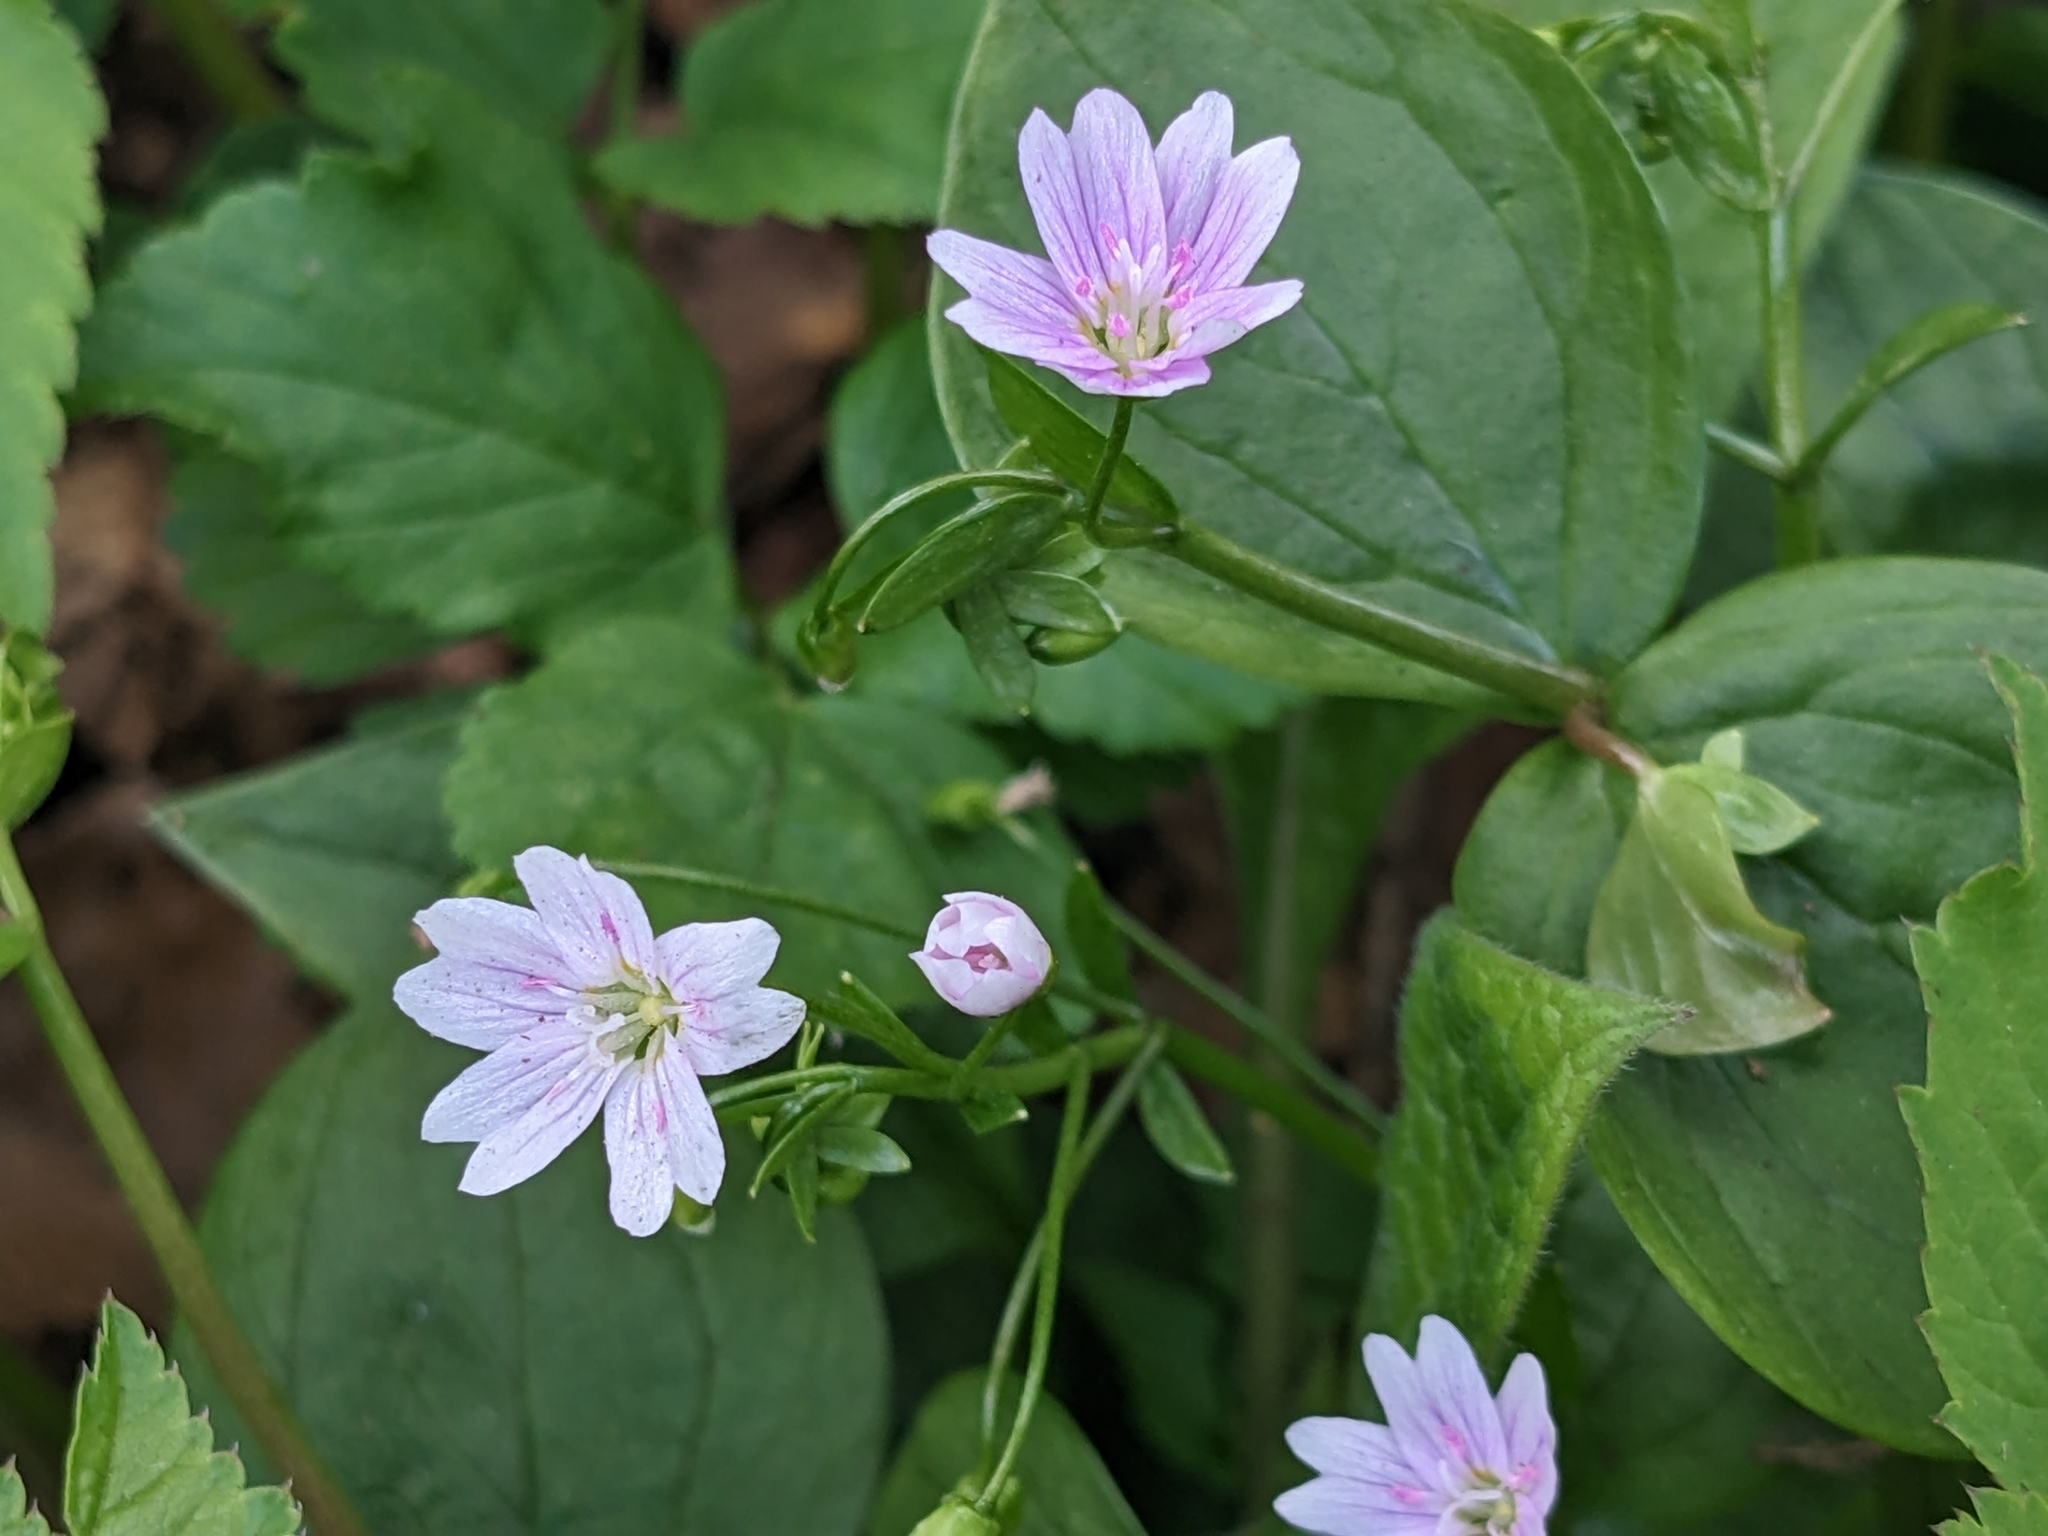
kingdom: Plantae
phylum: Tracheophyta
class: Magnoliopsida
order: Caryophyllales
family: Montiaceae
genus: Claytonia
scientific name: Claytonia sibirica
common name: Pink purslane
